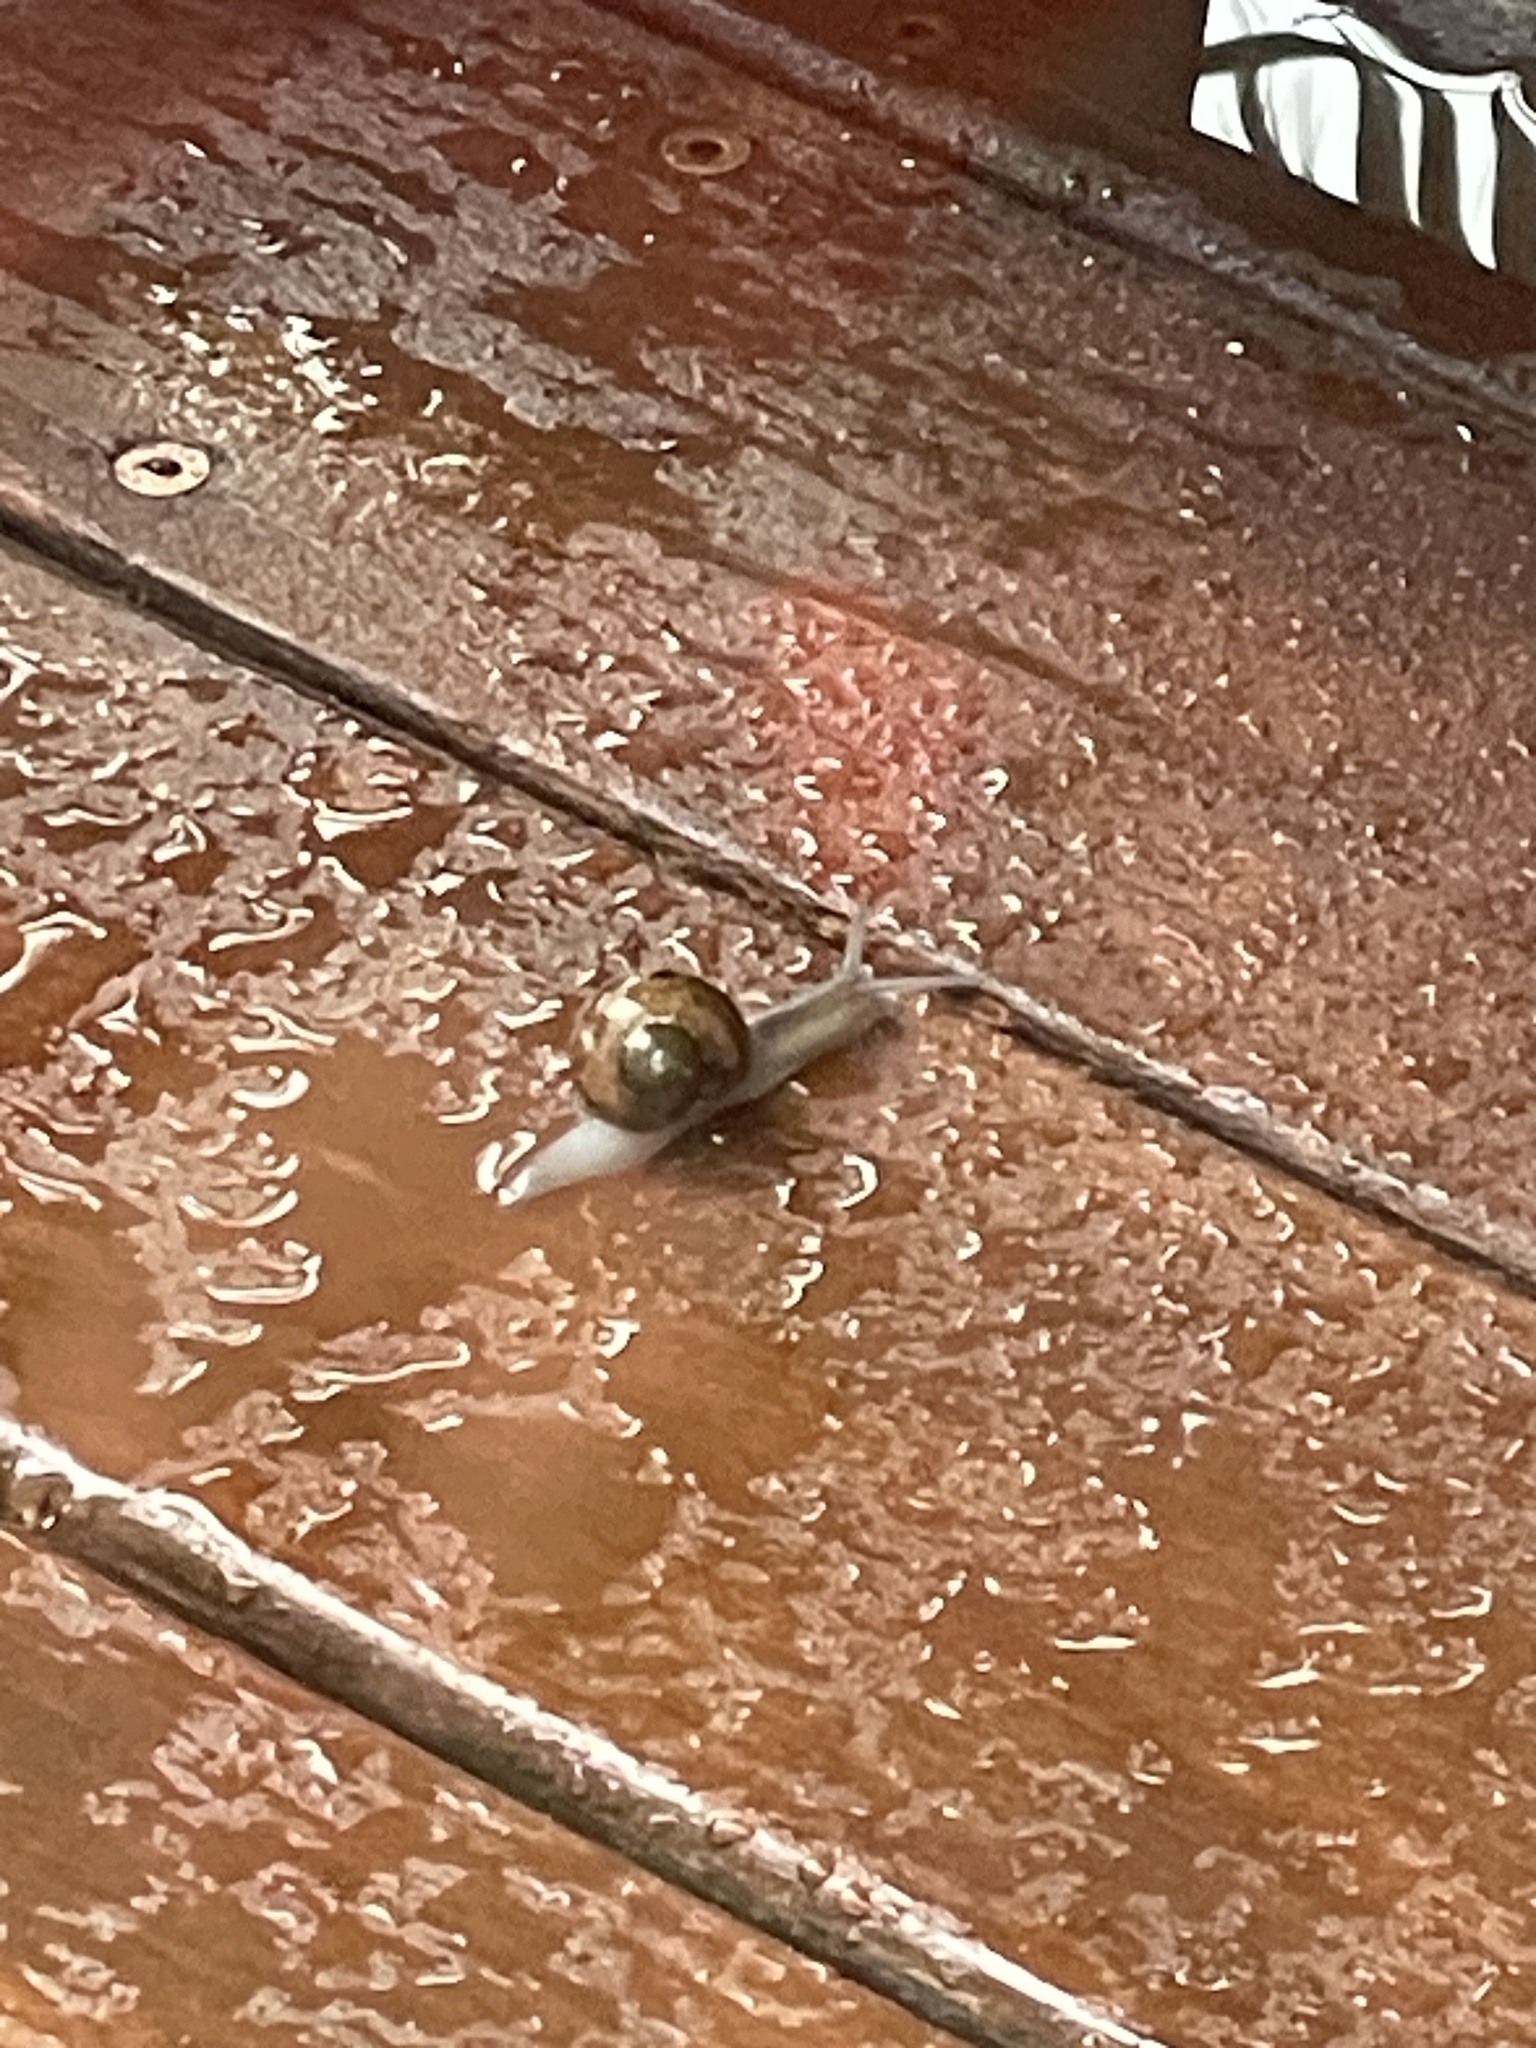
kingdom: Animalia
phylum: Mollusca
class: Gastropoda
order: Stylommatophora
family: Helicidae
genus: Cornu
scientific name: Cornu aspersum
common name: Brown garden snail
